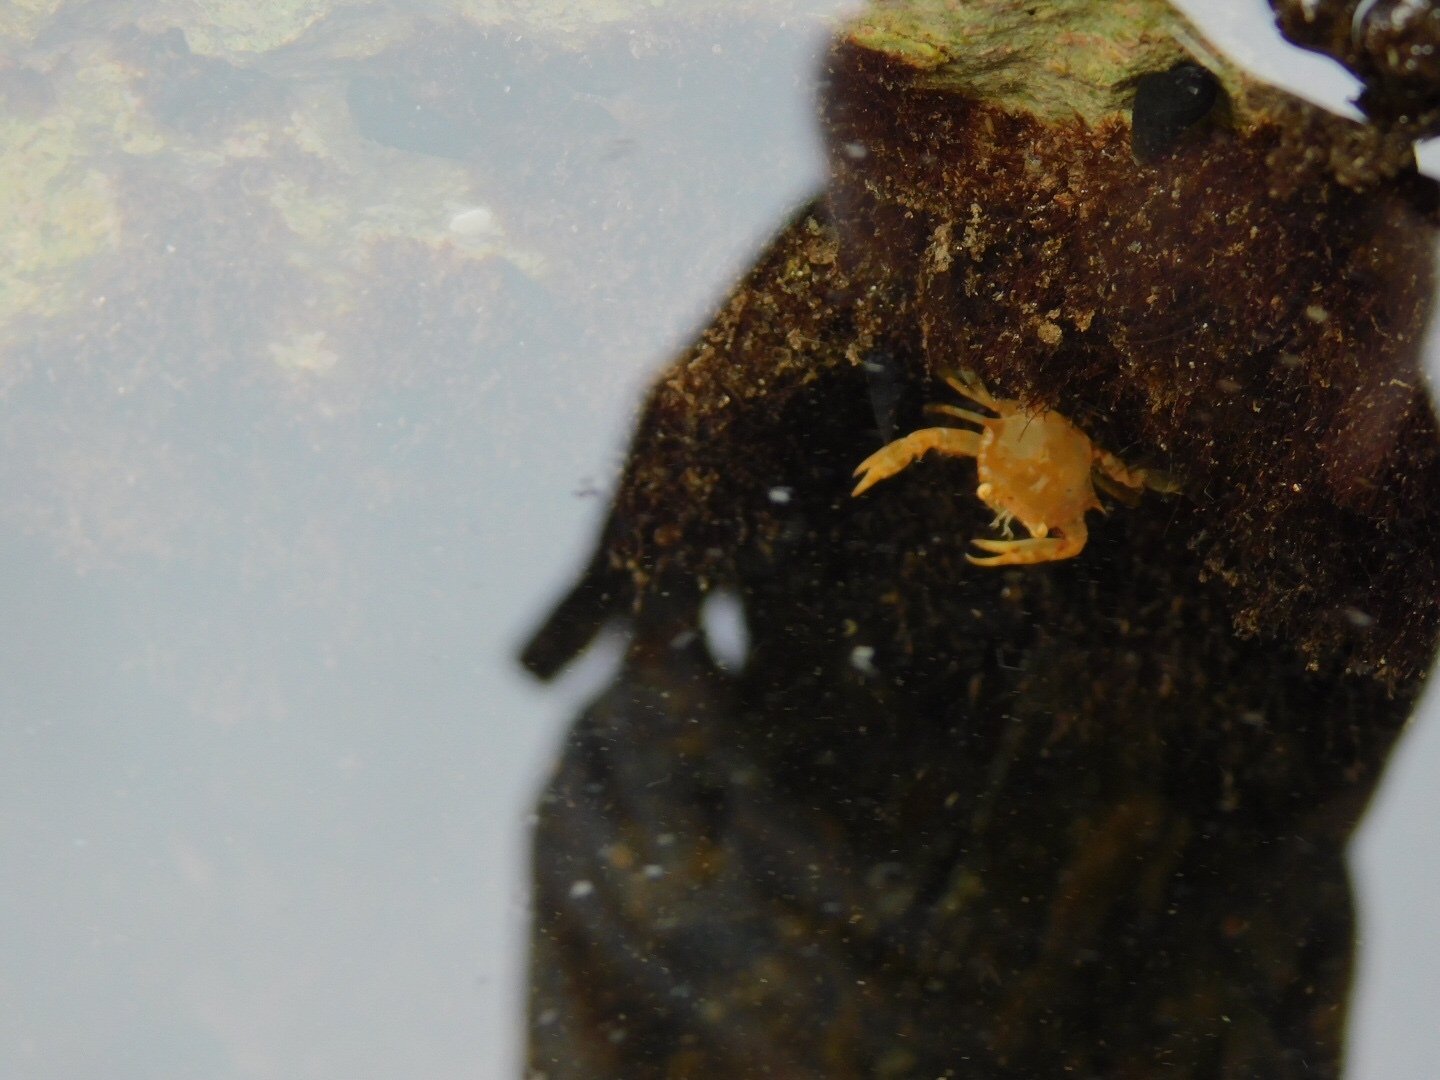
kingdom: Animalia
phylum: Arthropoda
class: Malacostraca
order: Decapoda
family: Portunidae
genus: Portunus
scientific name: Portunus sayi
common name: Sargassum crab
